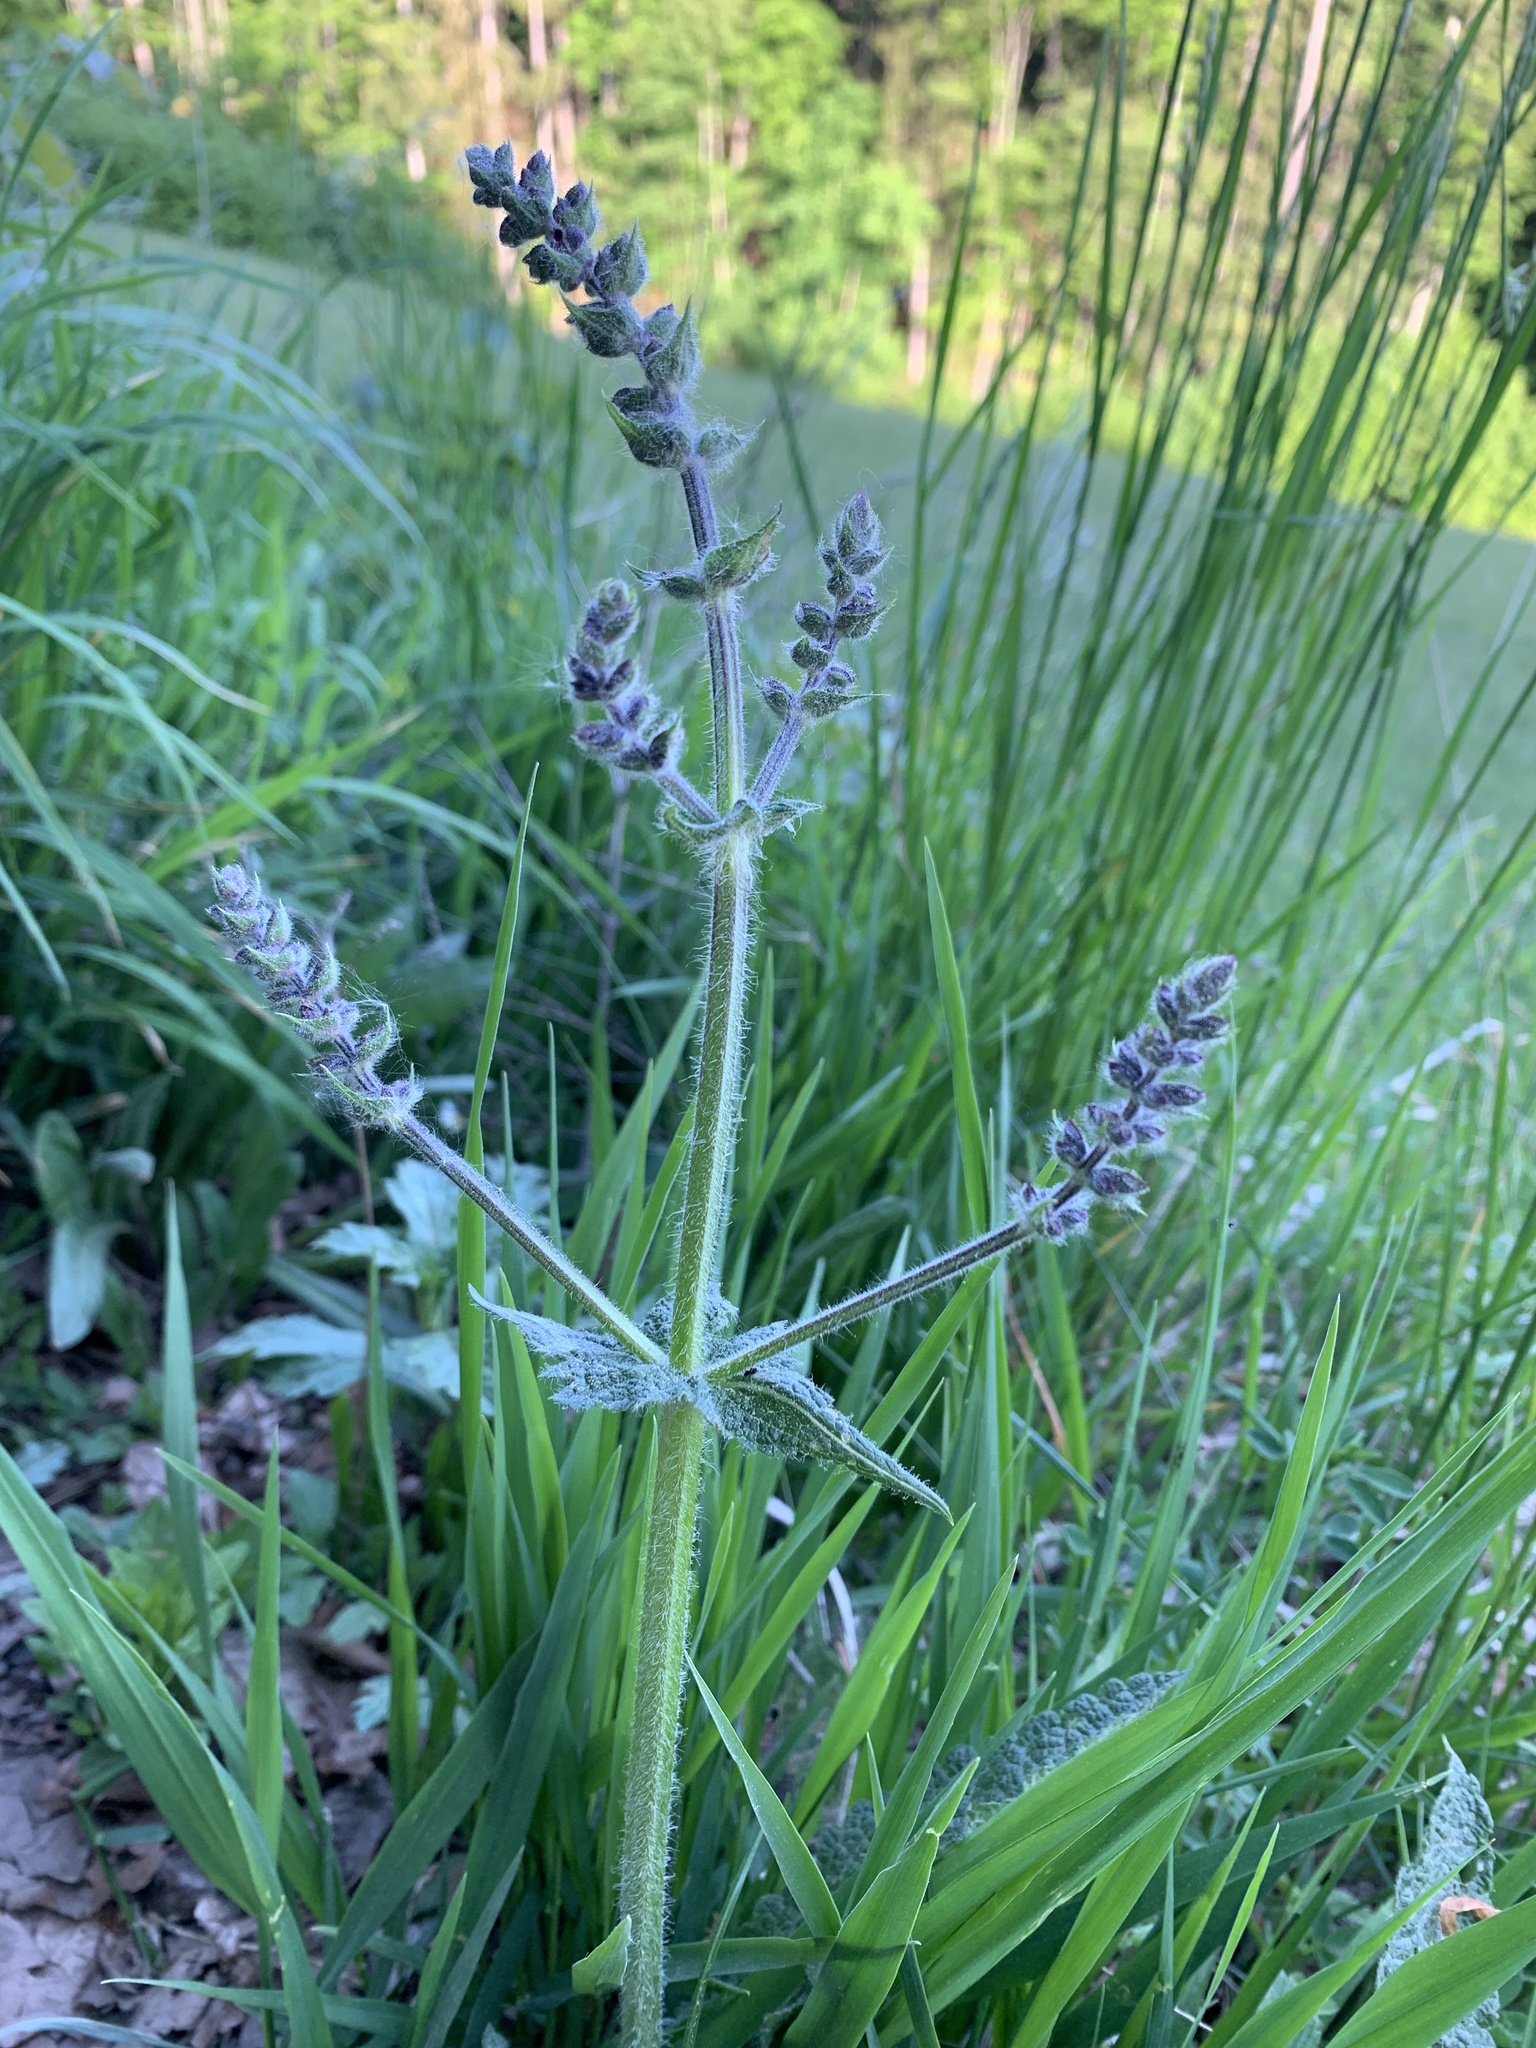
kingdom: Plantae
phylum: Tracheophyta
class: Magnoliopsida
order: Lamiales
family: Lamiaceae
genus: Salvia
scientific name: Salvia pratensis
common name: Meadow sage
